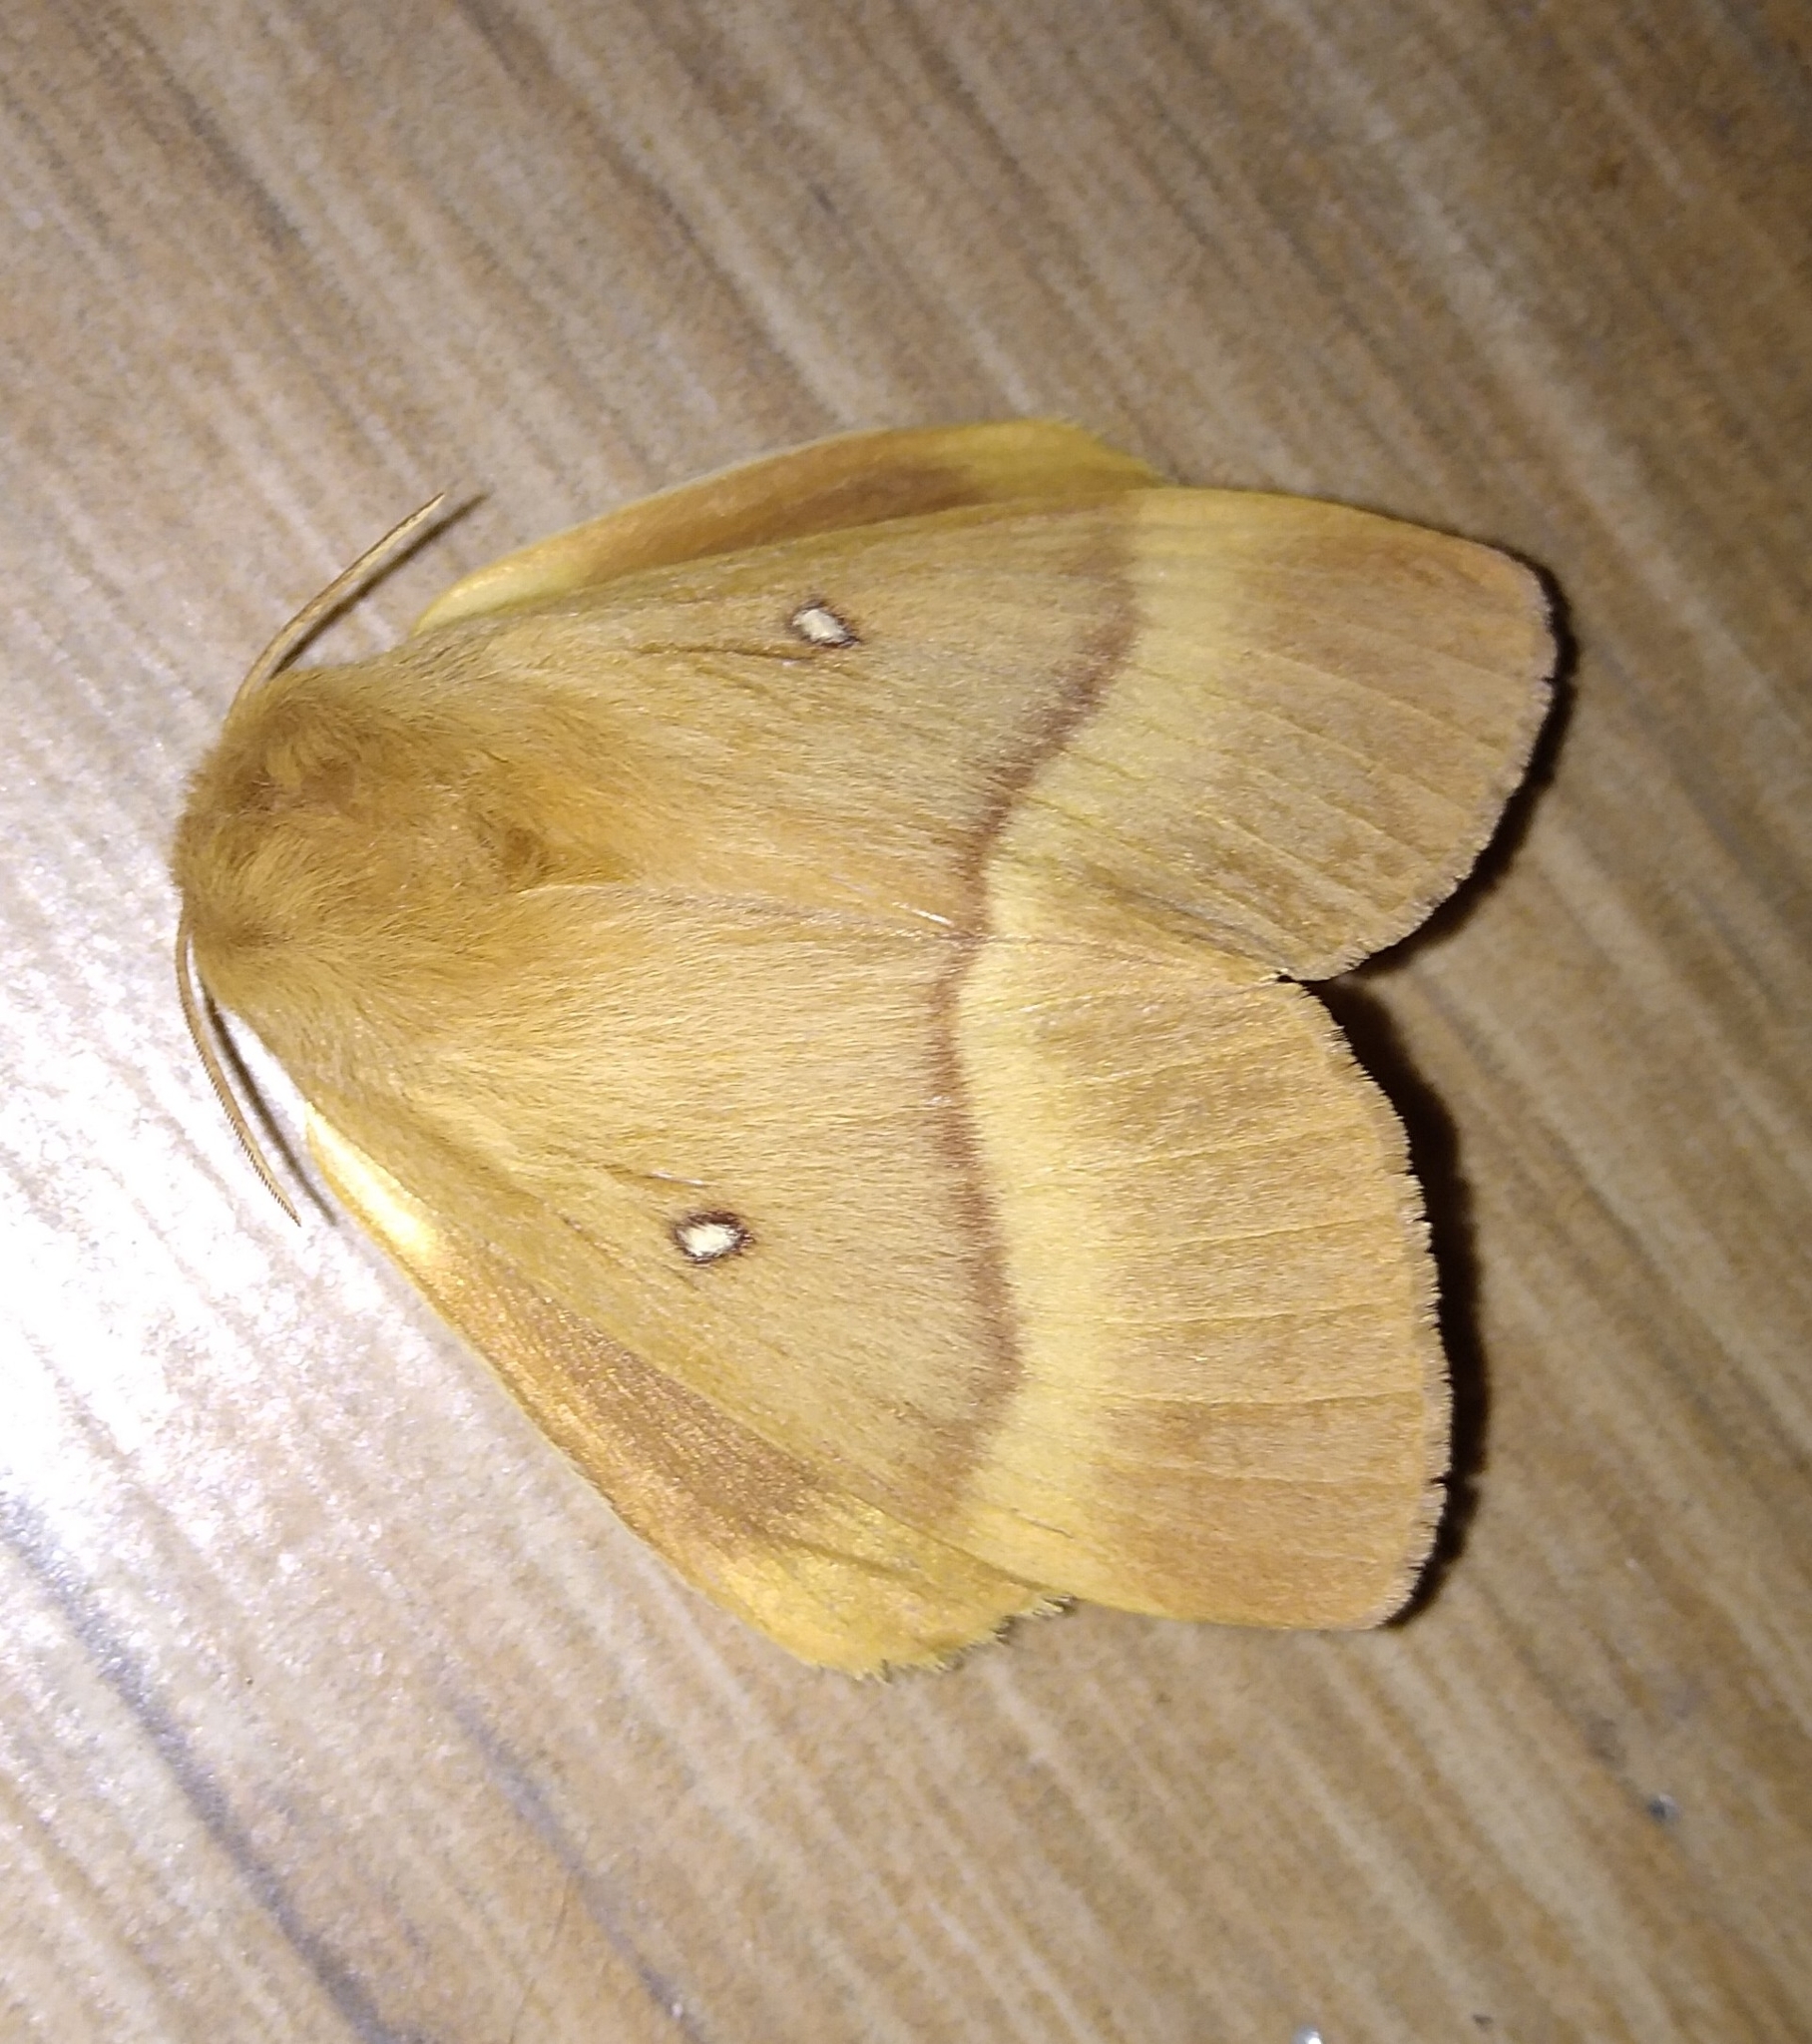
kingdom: Animalia
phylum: Arthropoda
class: Insecta
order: Lepidoptera
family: Lasiocampidae
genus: Lasiocampa
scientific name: Lasiocampa quercus
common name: Oak eggar
